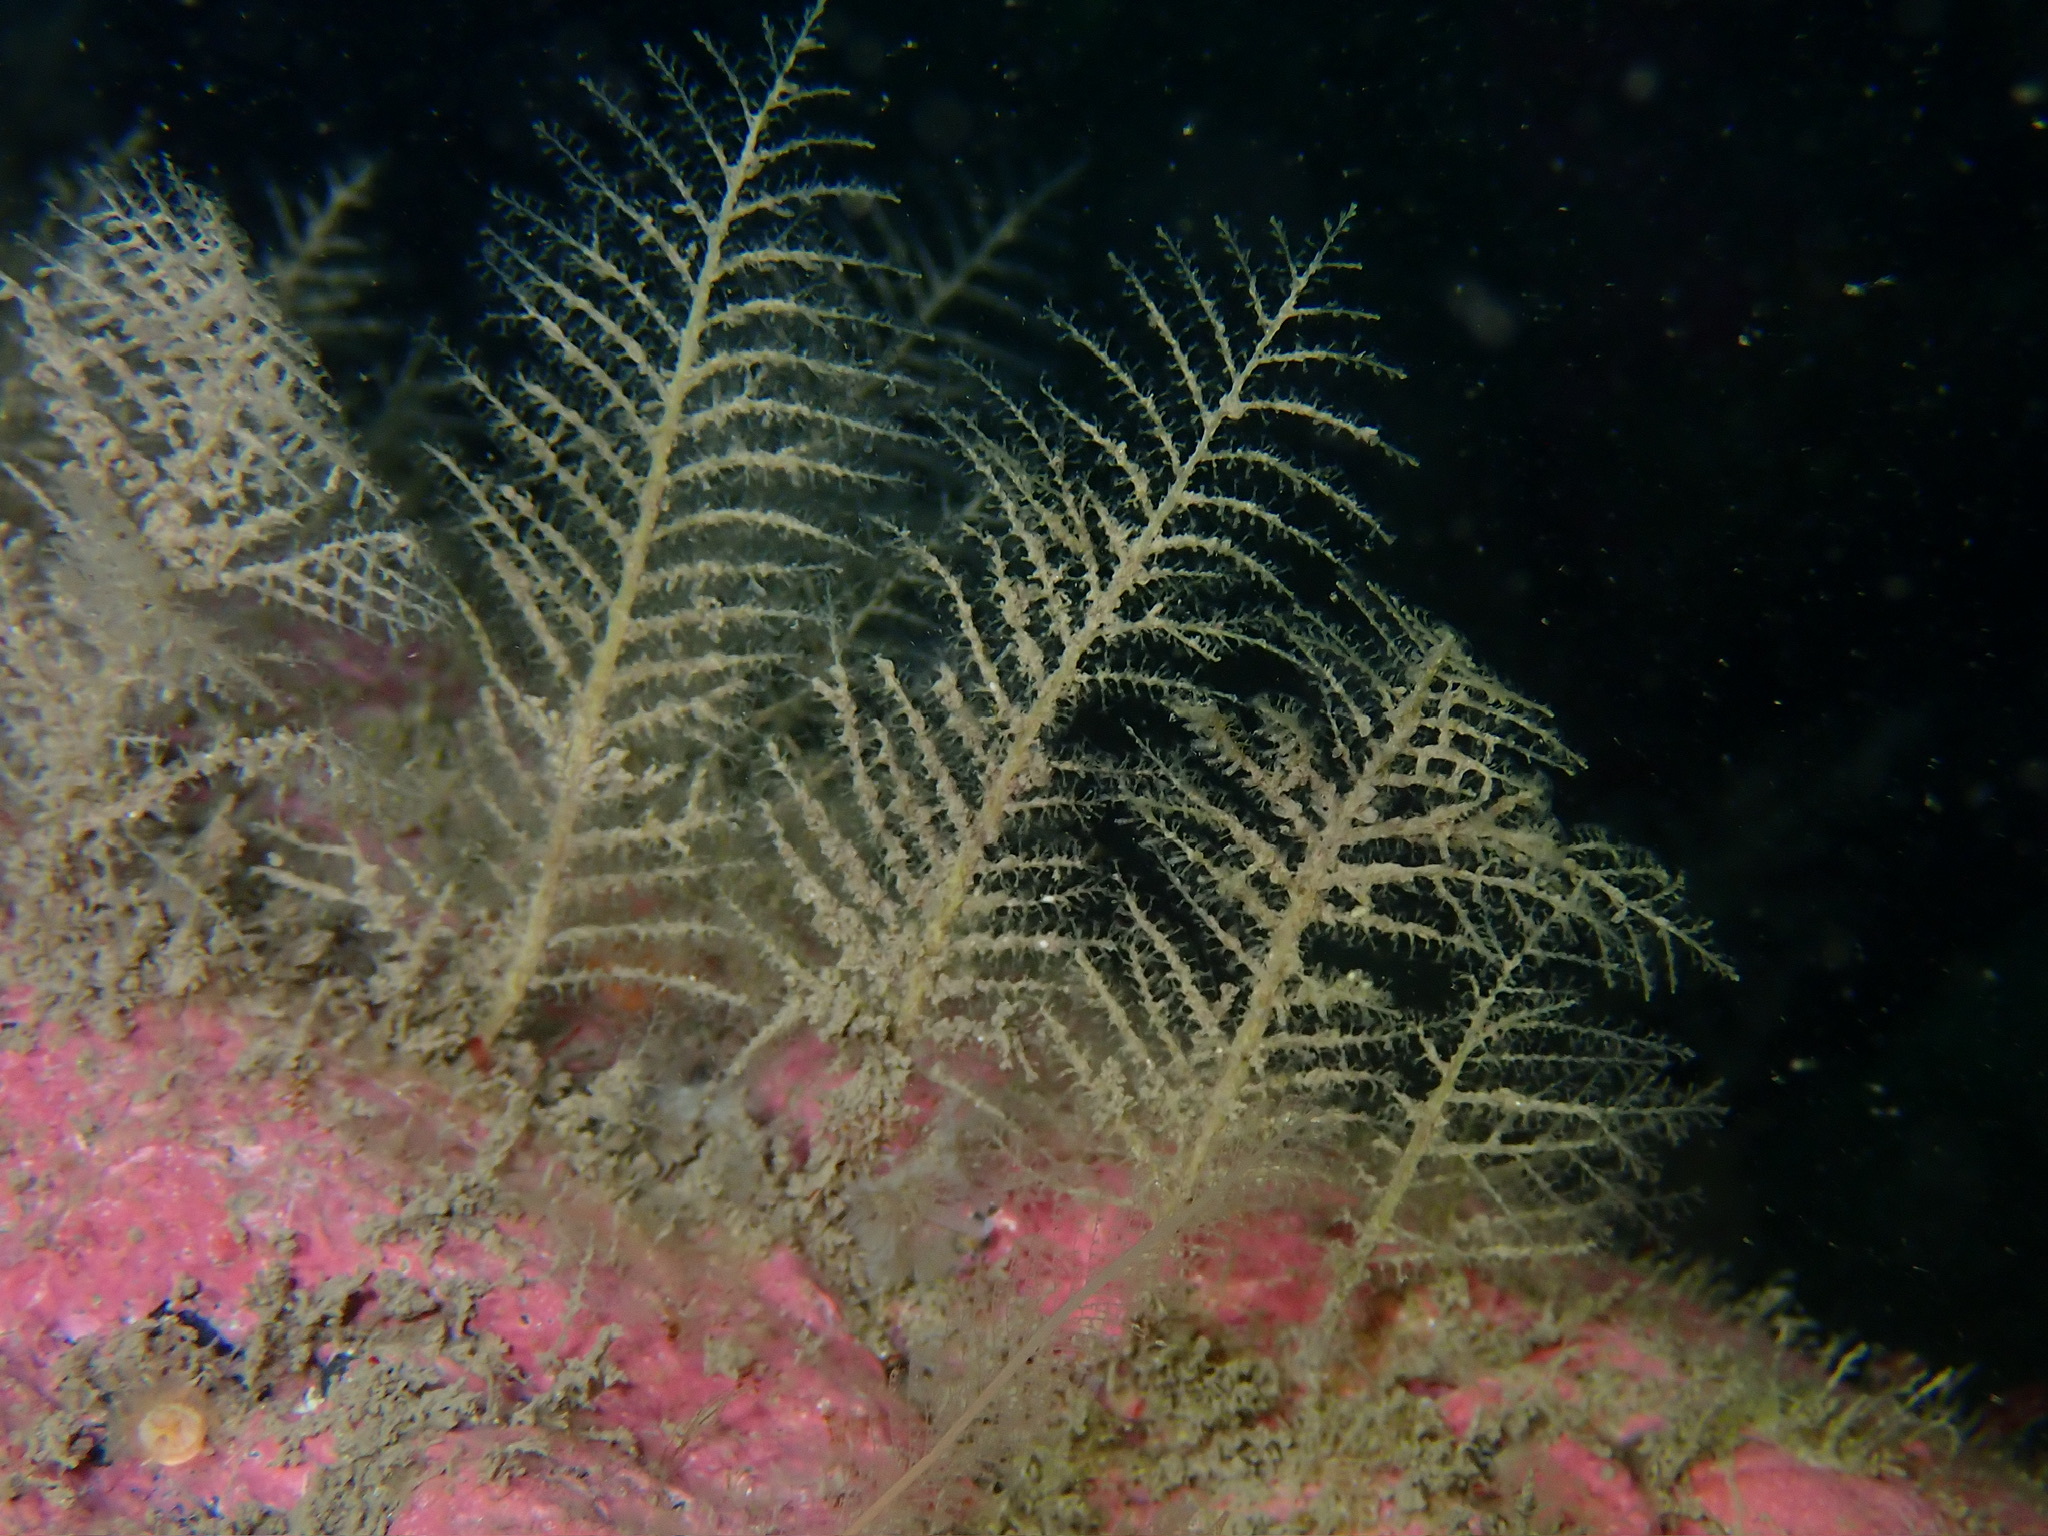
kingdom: Animalia
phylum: Cnidaria
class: Hydrozoa
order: Leptothecata
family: Haleciidae
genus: Halecium
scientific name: Halecium halecinum
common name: Herringbone hydroid
